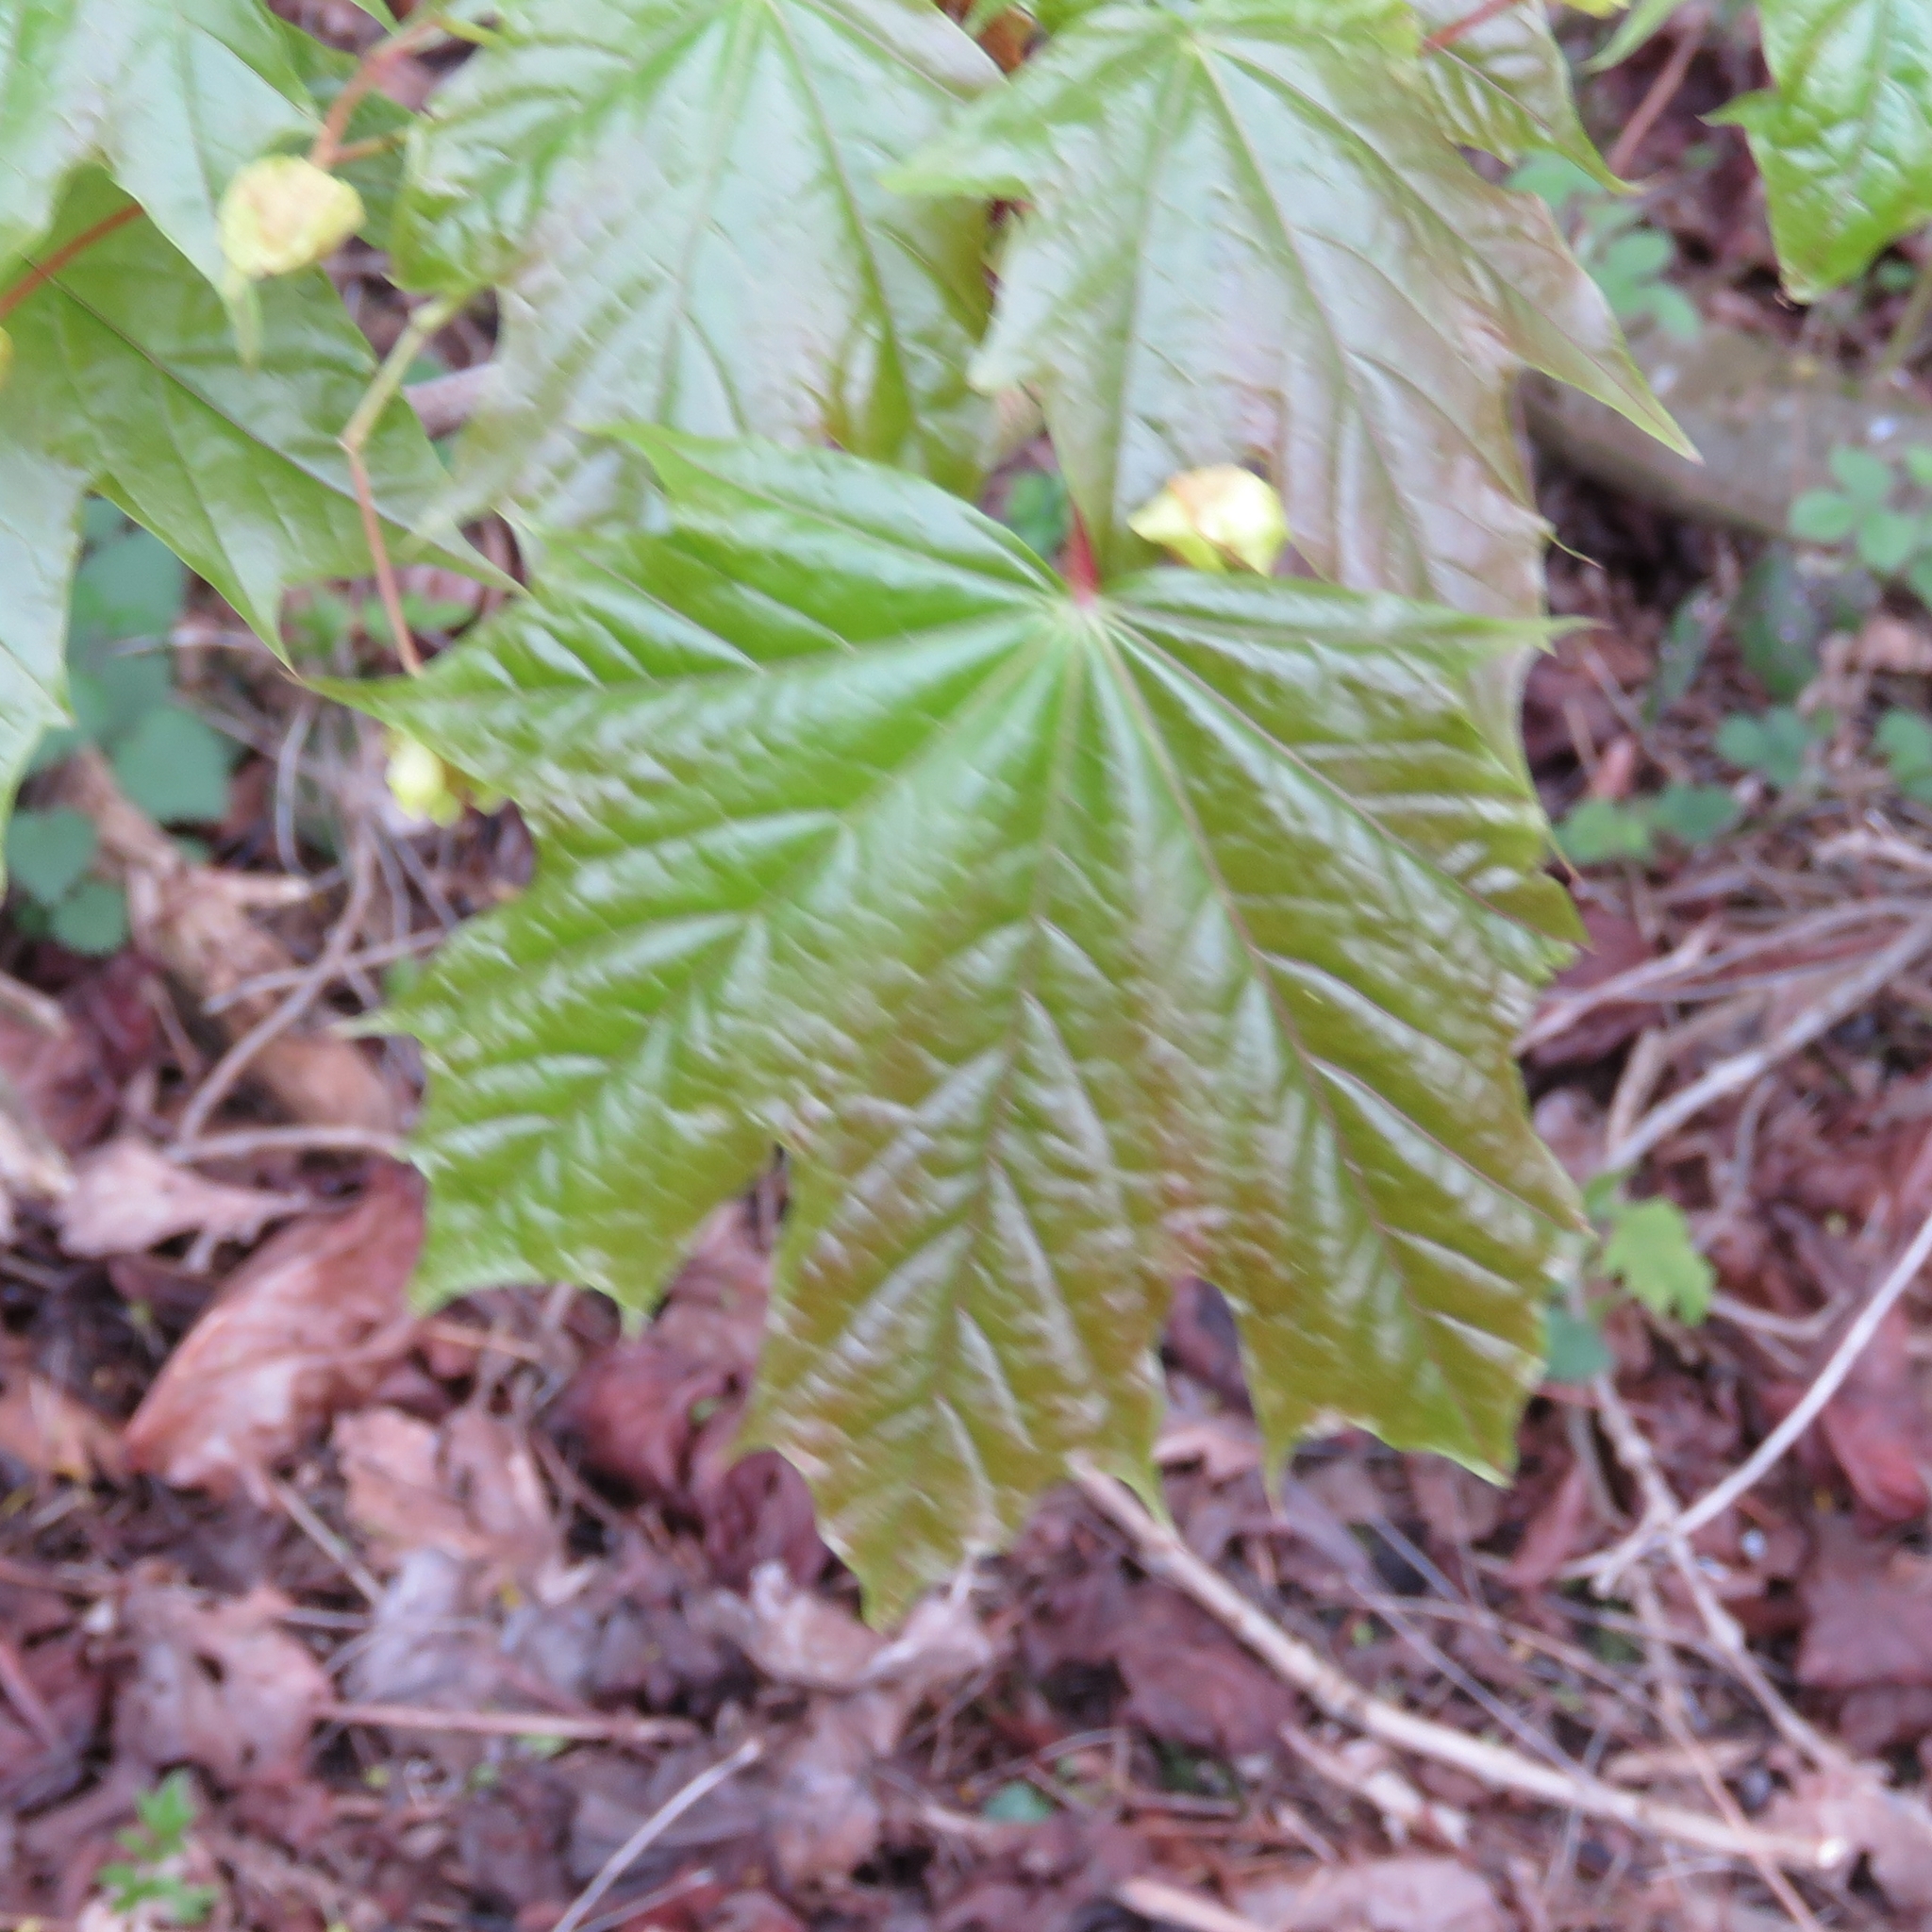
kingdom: Plantae
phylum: Tracheophyta
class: Magnoliopsida
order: Sapindales
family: Sapindaceae
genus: Acer
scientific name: Acer platanoides
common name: Norway maple
